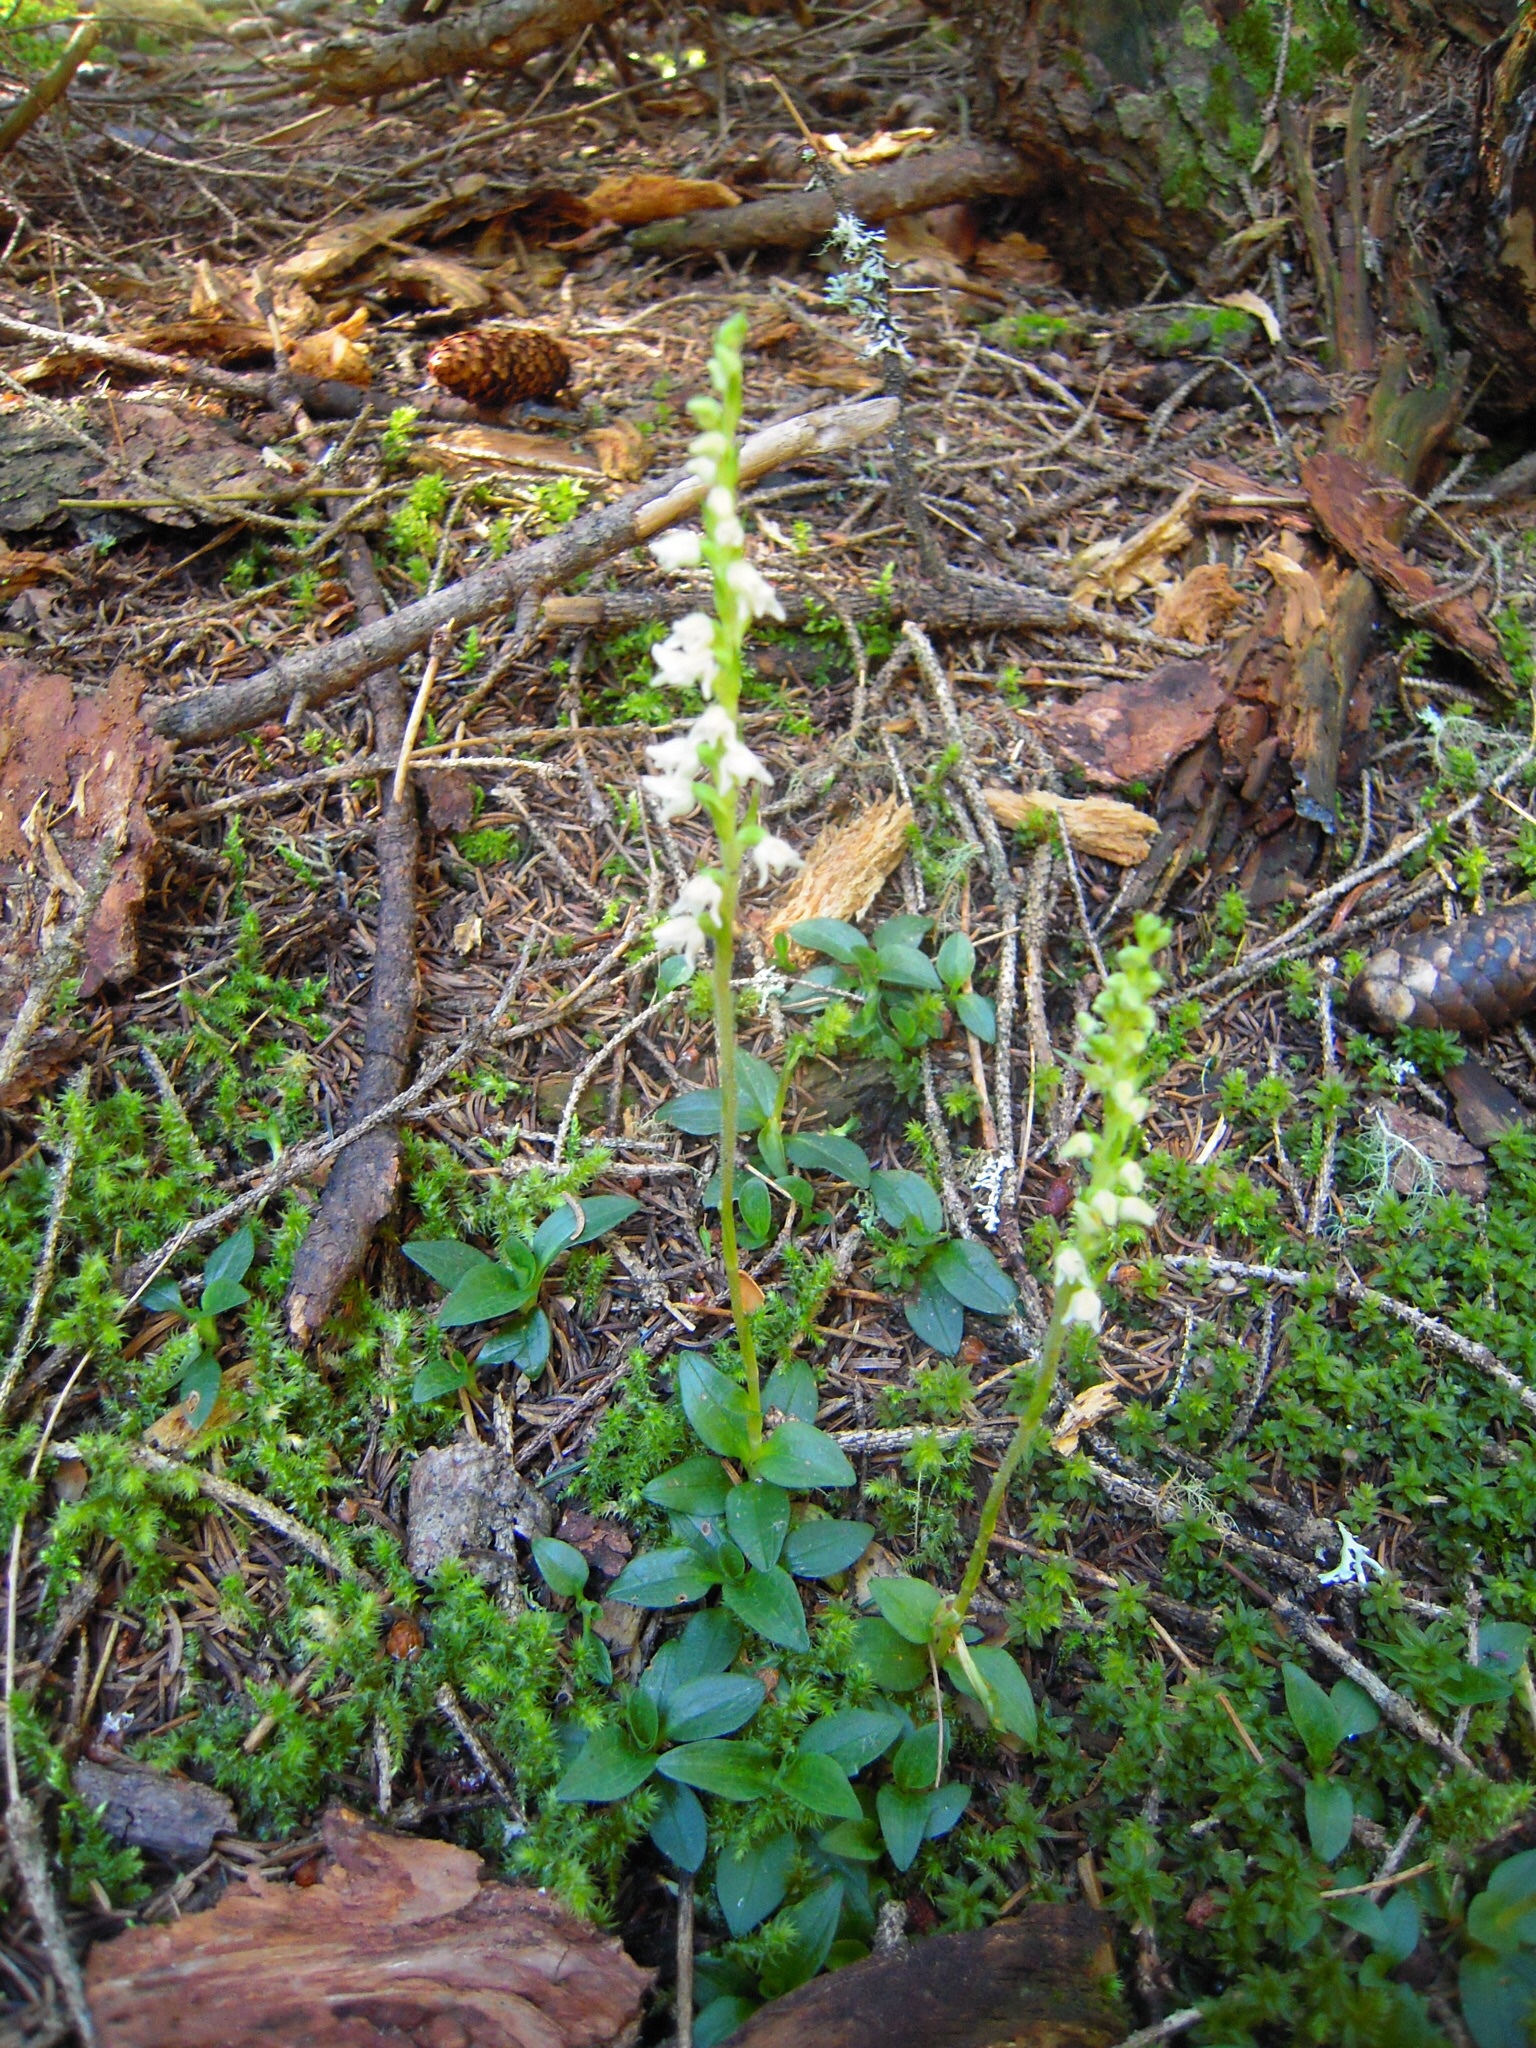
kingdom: Plantae
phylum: Tracheophyta
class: Liliopsida
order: Asparagales
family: Orchidaceae
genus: Goodyera
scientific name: Goodyera repens
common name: Creeping lady's-tresses
